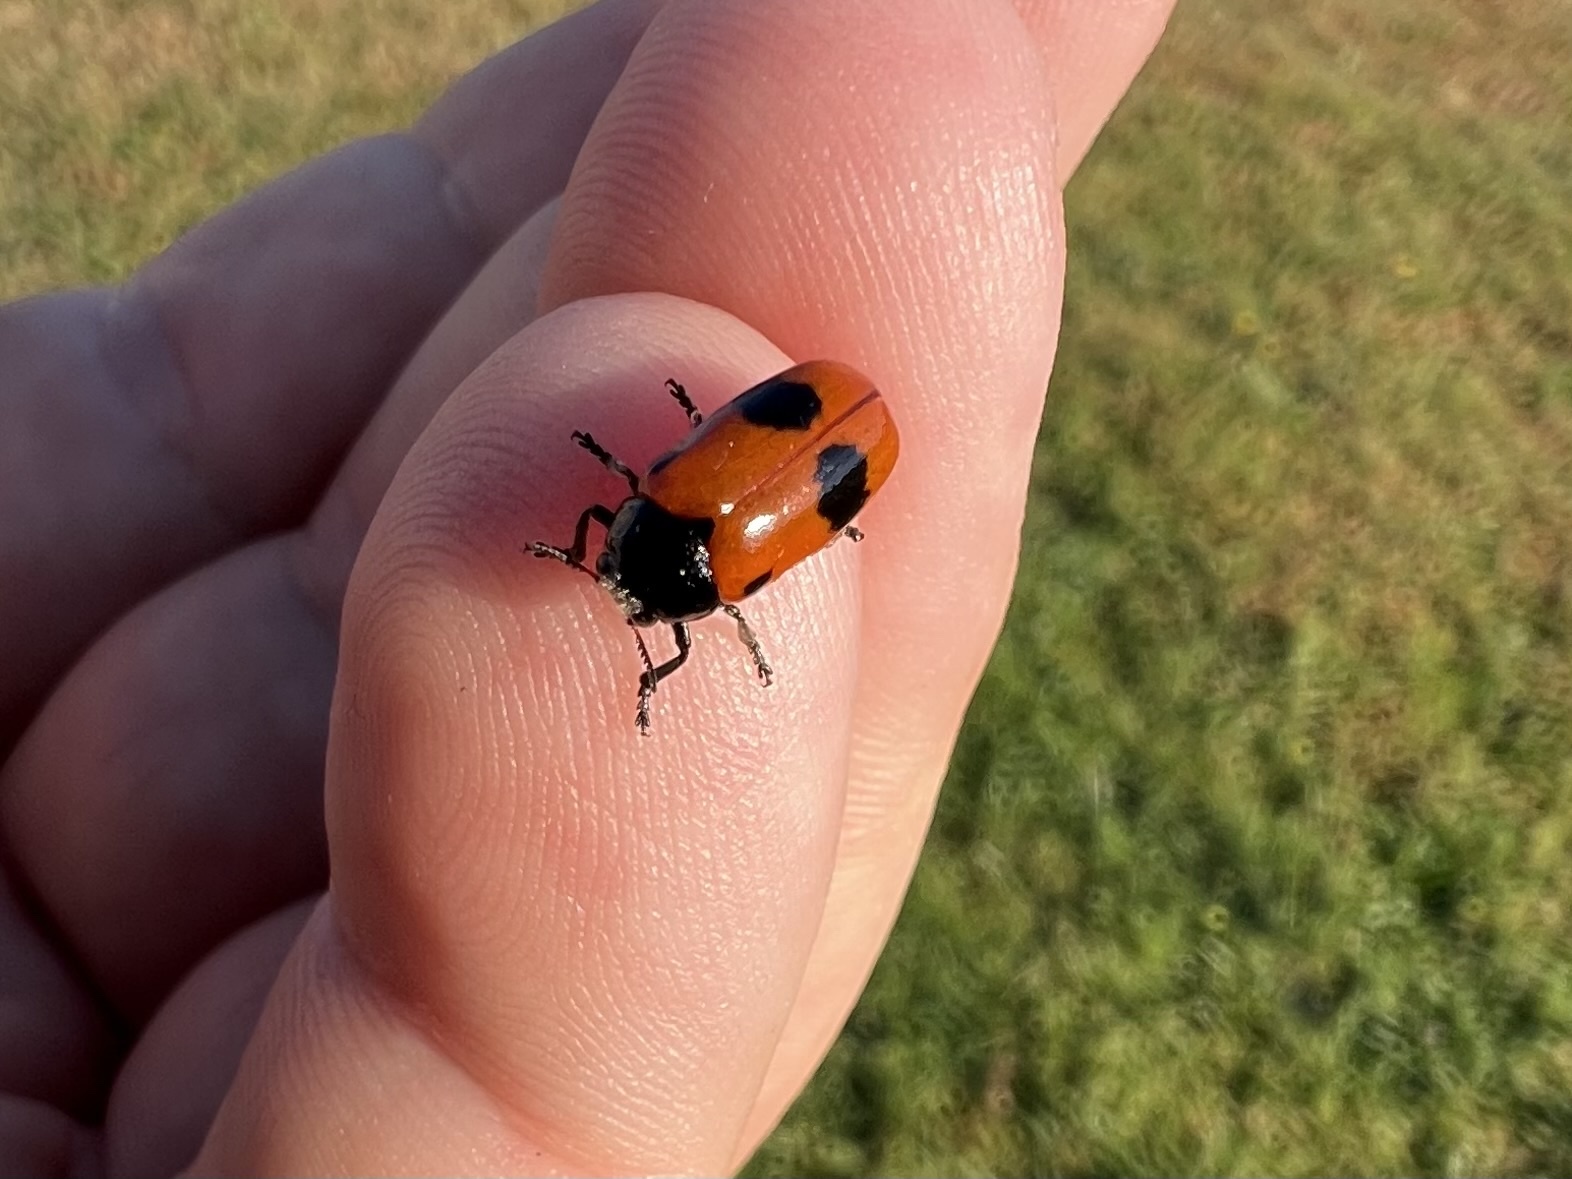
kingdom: Animalia
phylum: Arthropoda
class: Insecta
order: Coleoptera
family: Chrysomelidae
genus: Clytra
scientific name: Clytra laeviuscula
